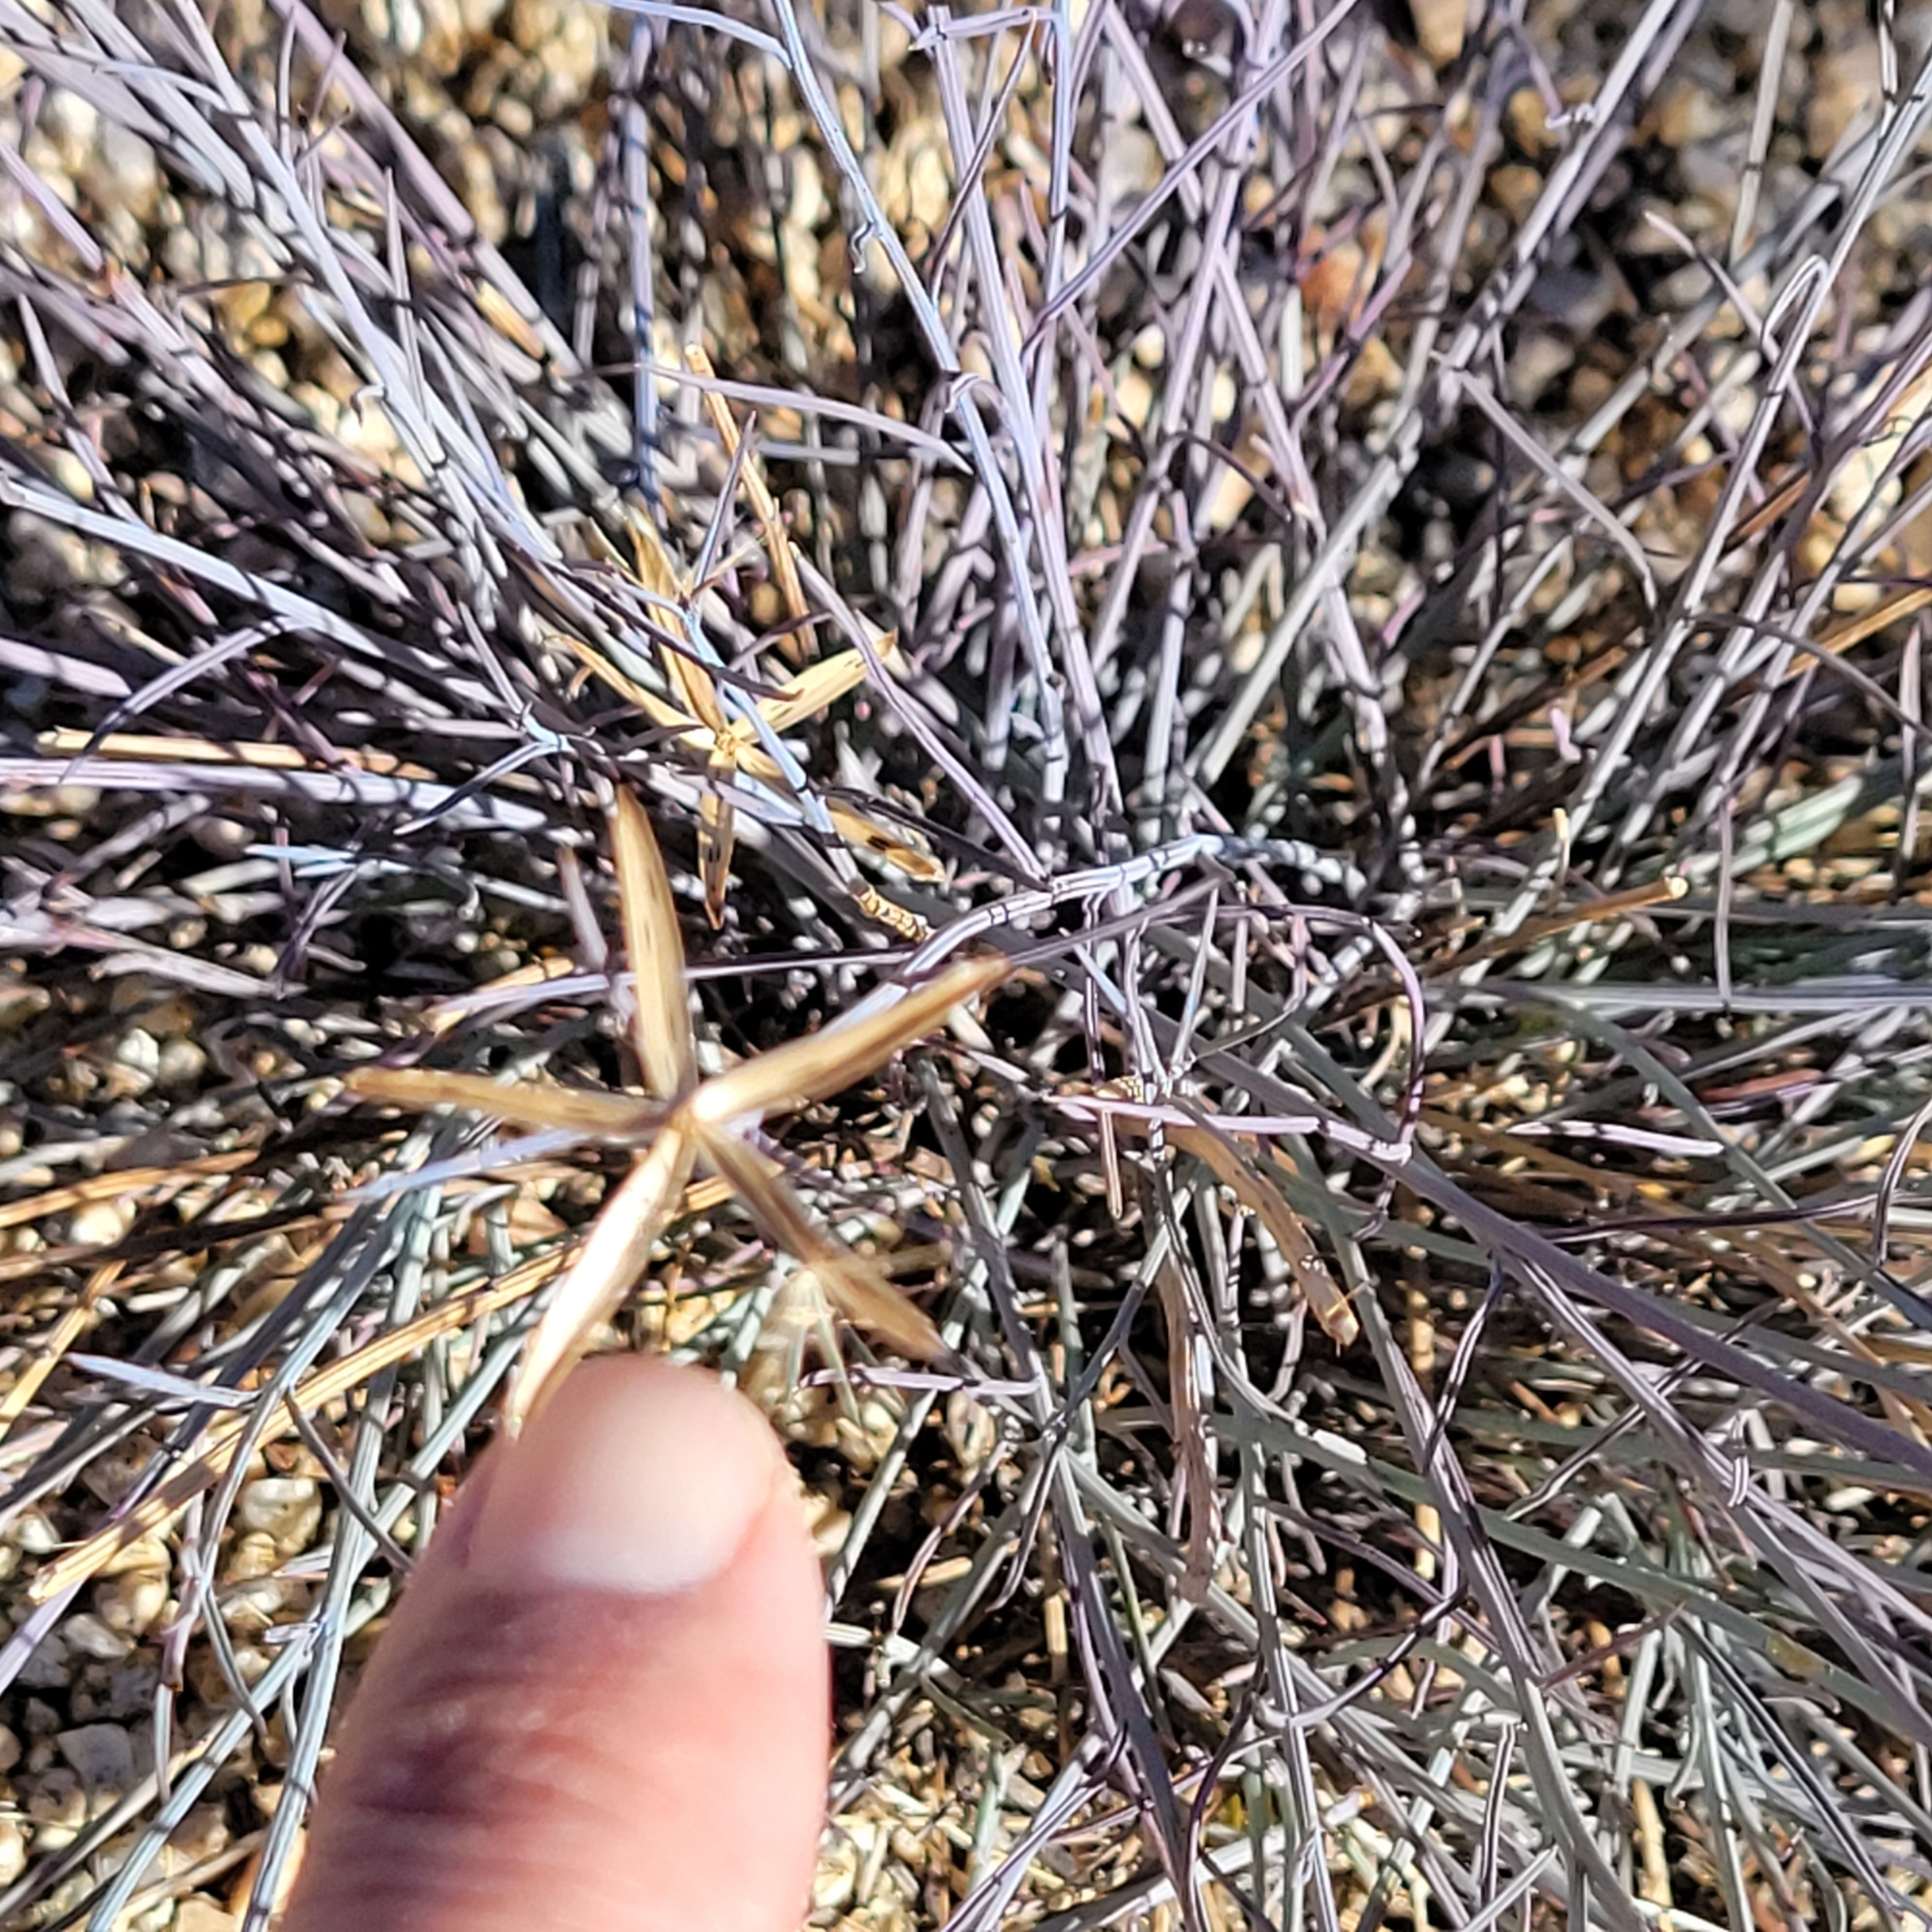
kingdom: Plantae
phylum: Tracheophyta
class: Magnoliopsida
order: Asterales
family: Asteraceae
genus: Porophyllum
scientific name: Porophyllum gracile
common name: Odora
